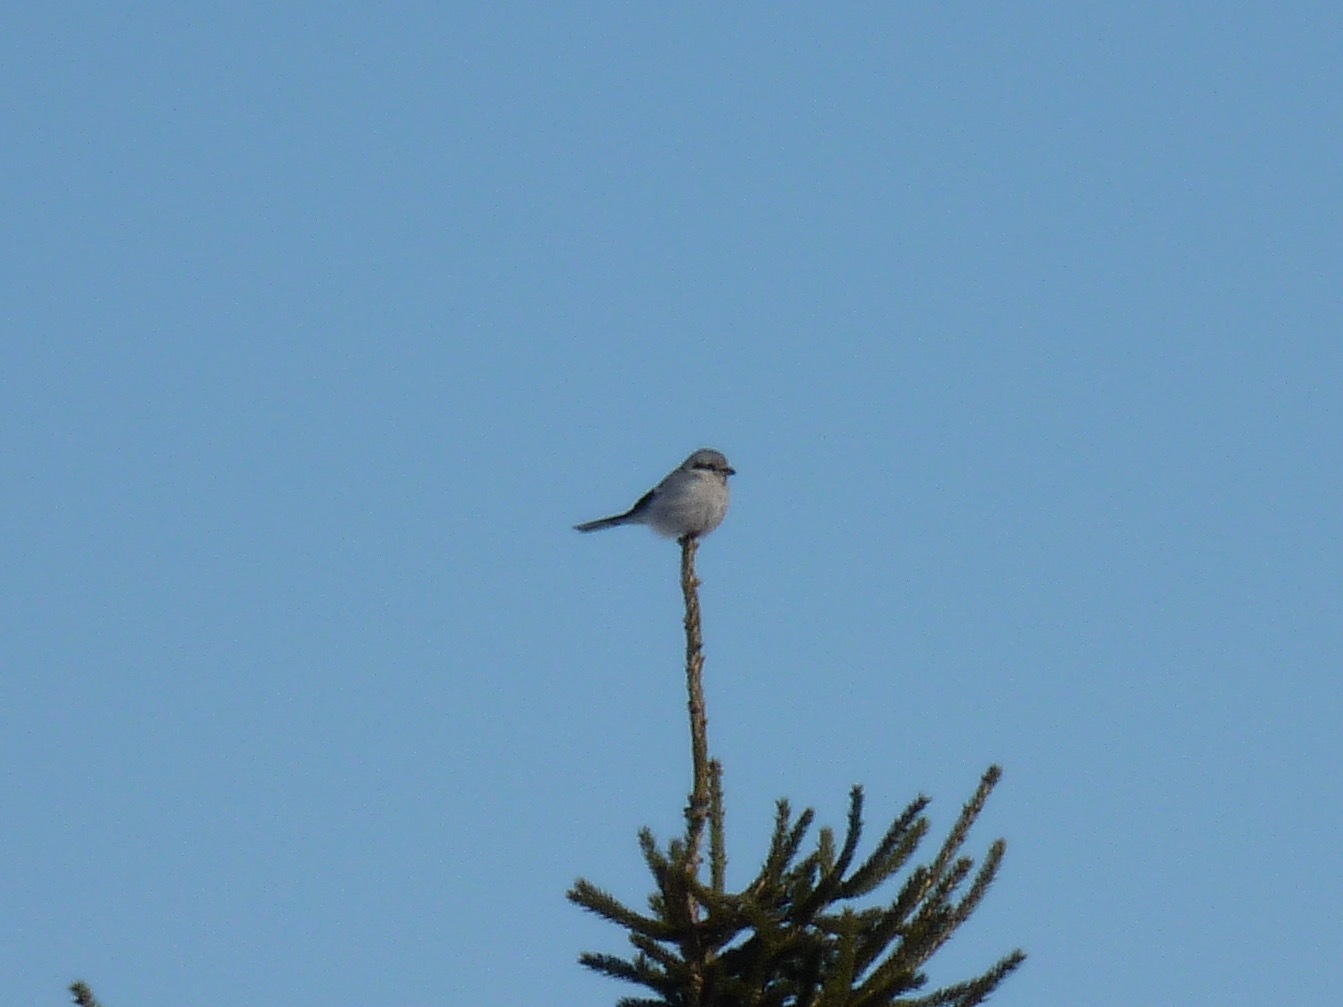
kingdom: Animalia
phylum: Chordata
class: Aves
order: Passeriformes
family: Laniidae
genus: Lanius
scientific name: Lanius borealis
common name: Northern shrike
